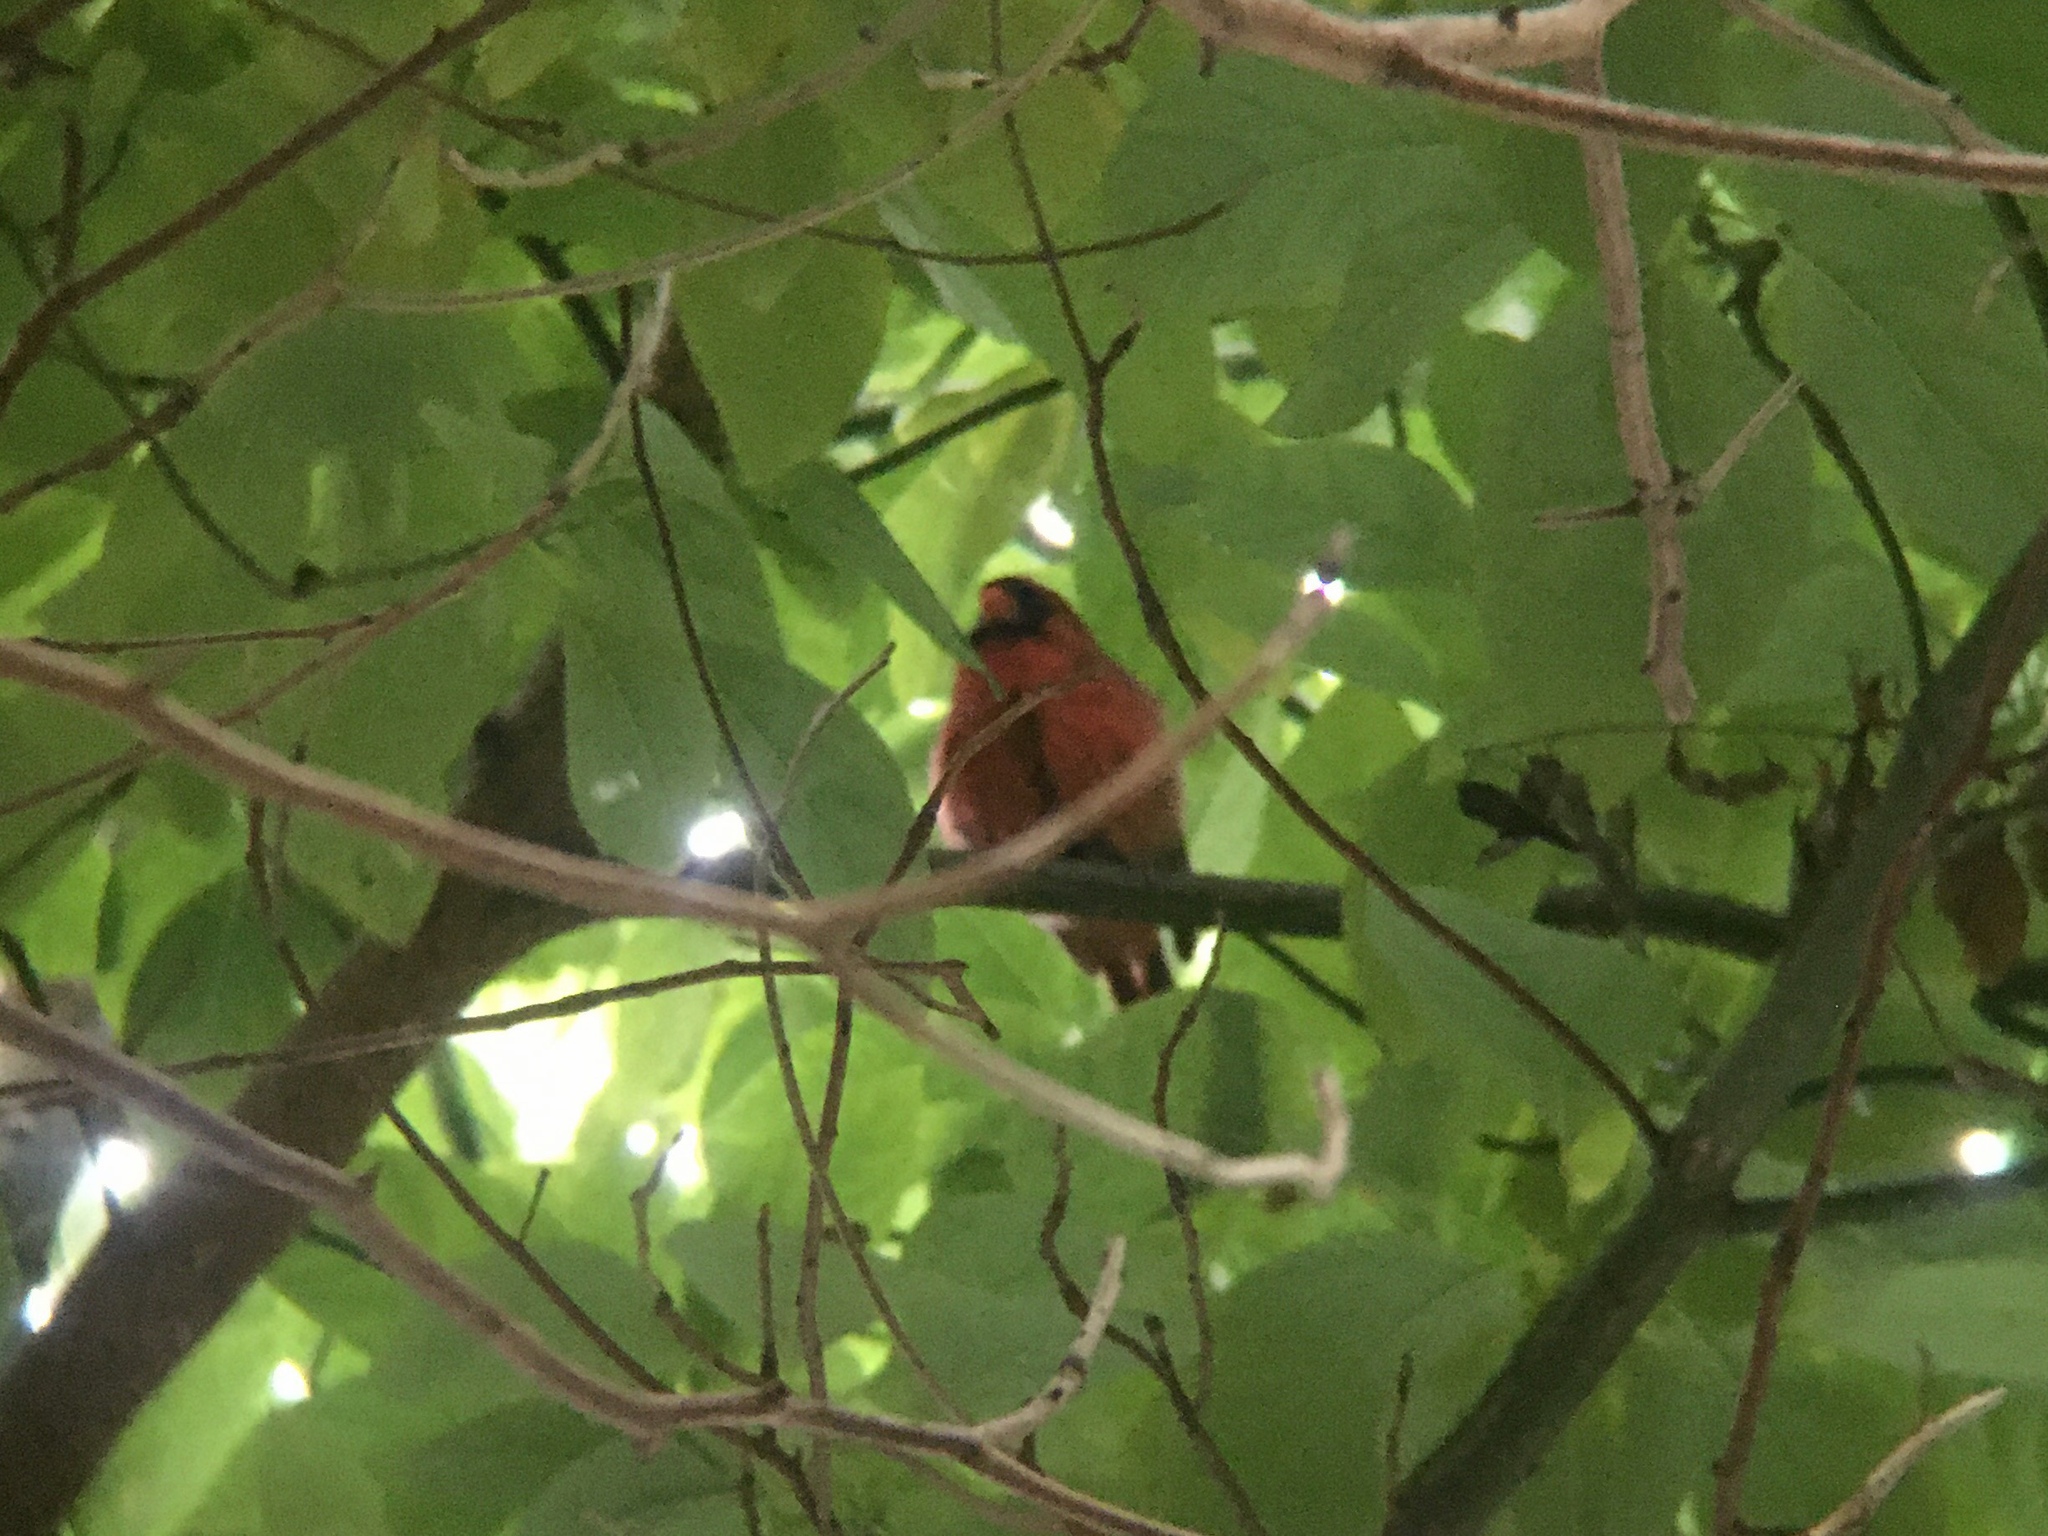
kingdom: Animalia
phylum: Chordata
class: Aves
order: Passeriformes
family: Cardinalidae
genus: Cardinalis
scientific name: Cardinalis cardinalis
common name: Northern cardinal
